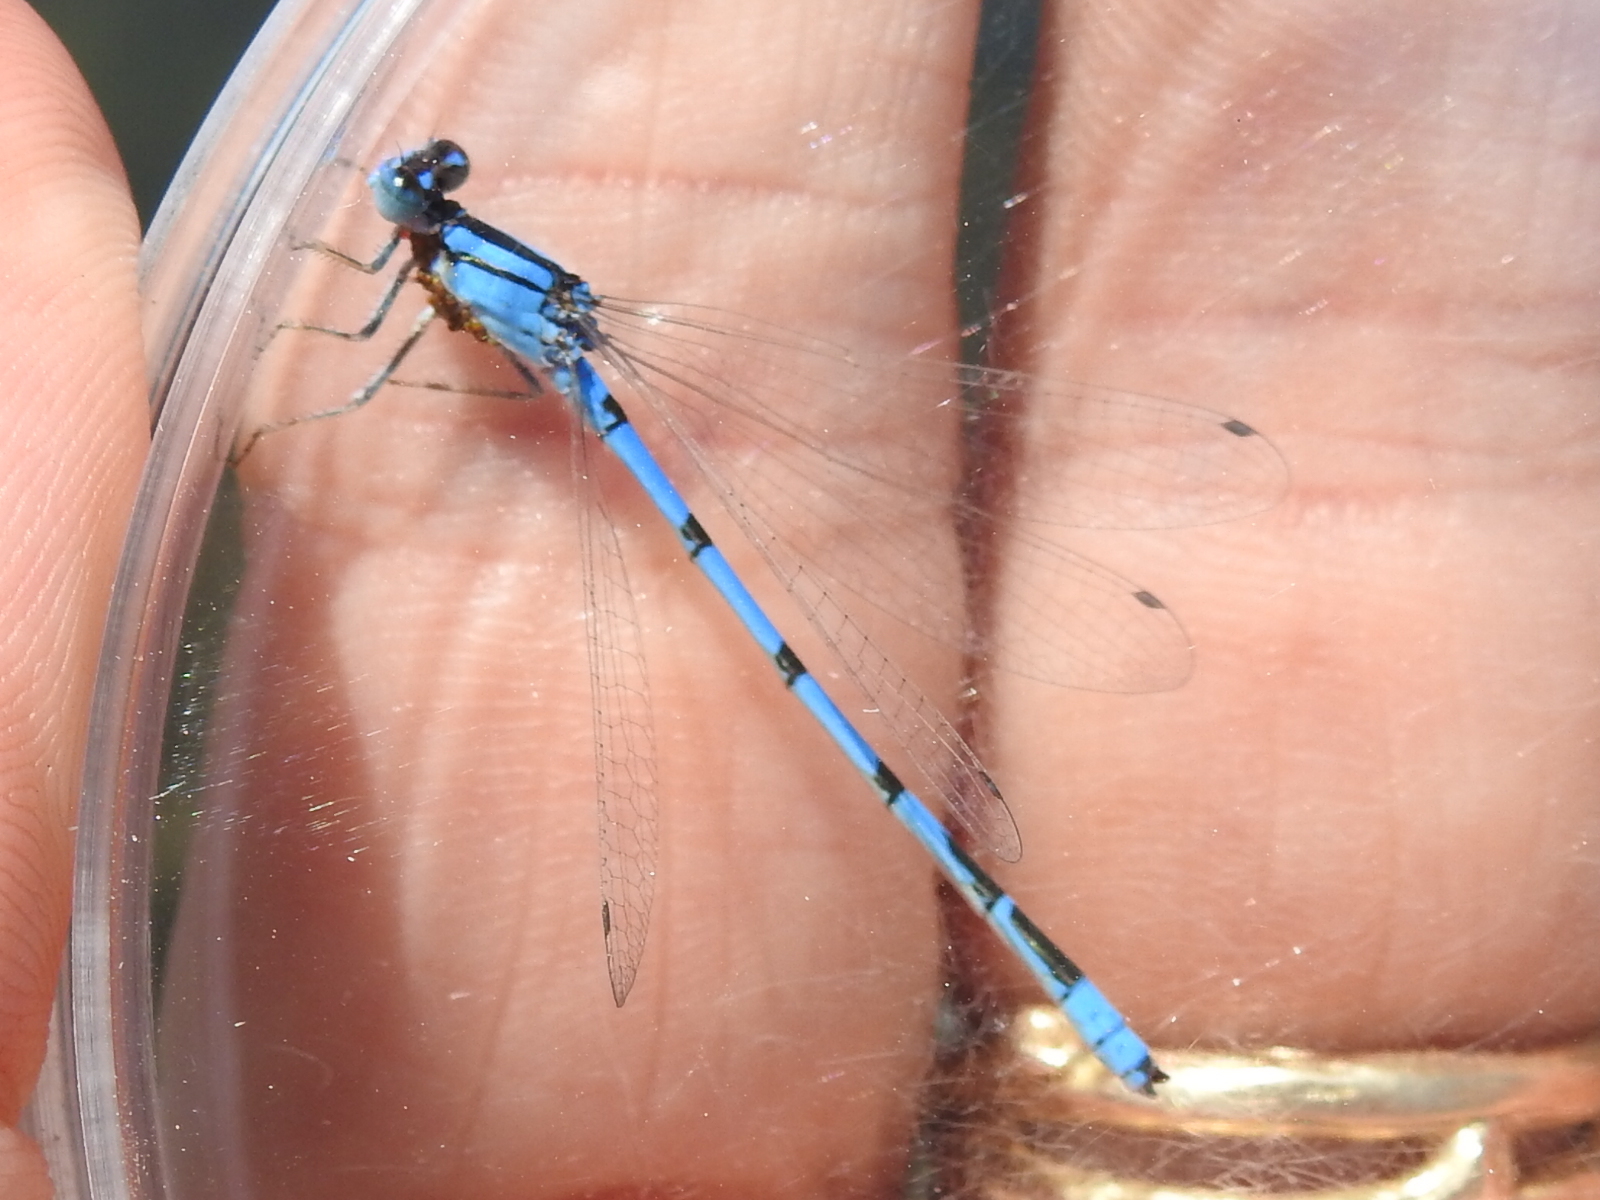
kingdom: Animalia
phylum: Arthropoda
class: Insecta
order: Odonata
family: Coenagrionidae
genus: Enallagma
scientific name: Enallagma civile
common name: Damselfly
